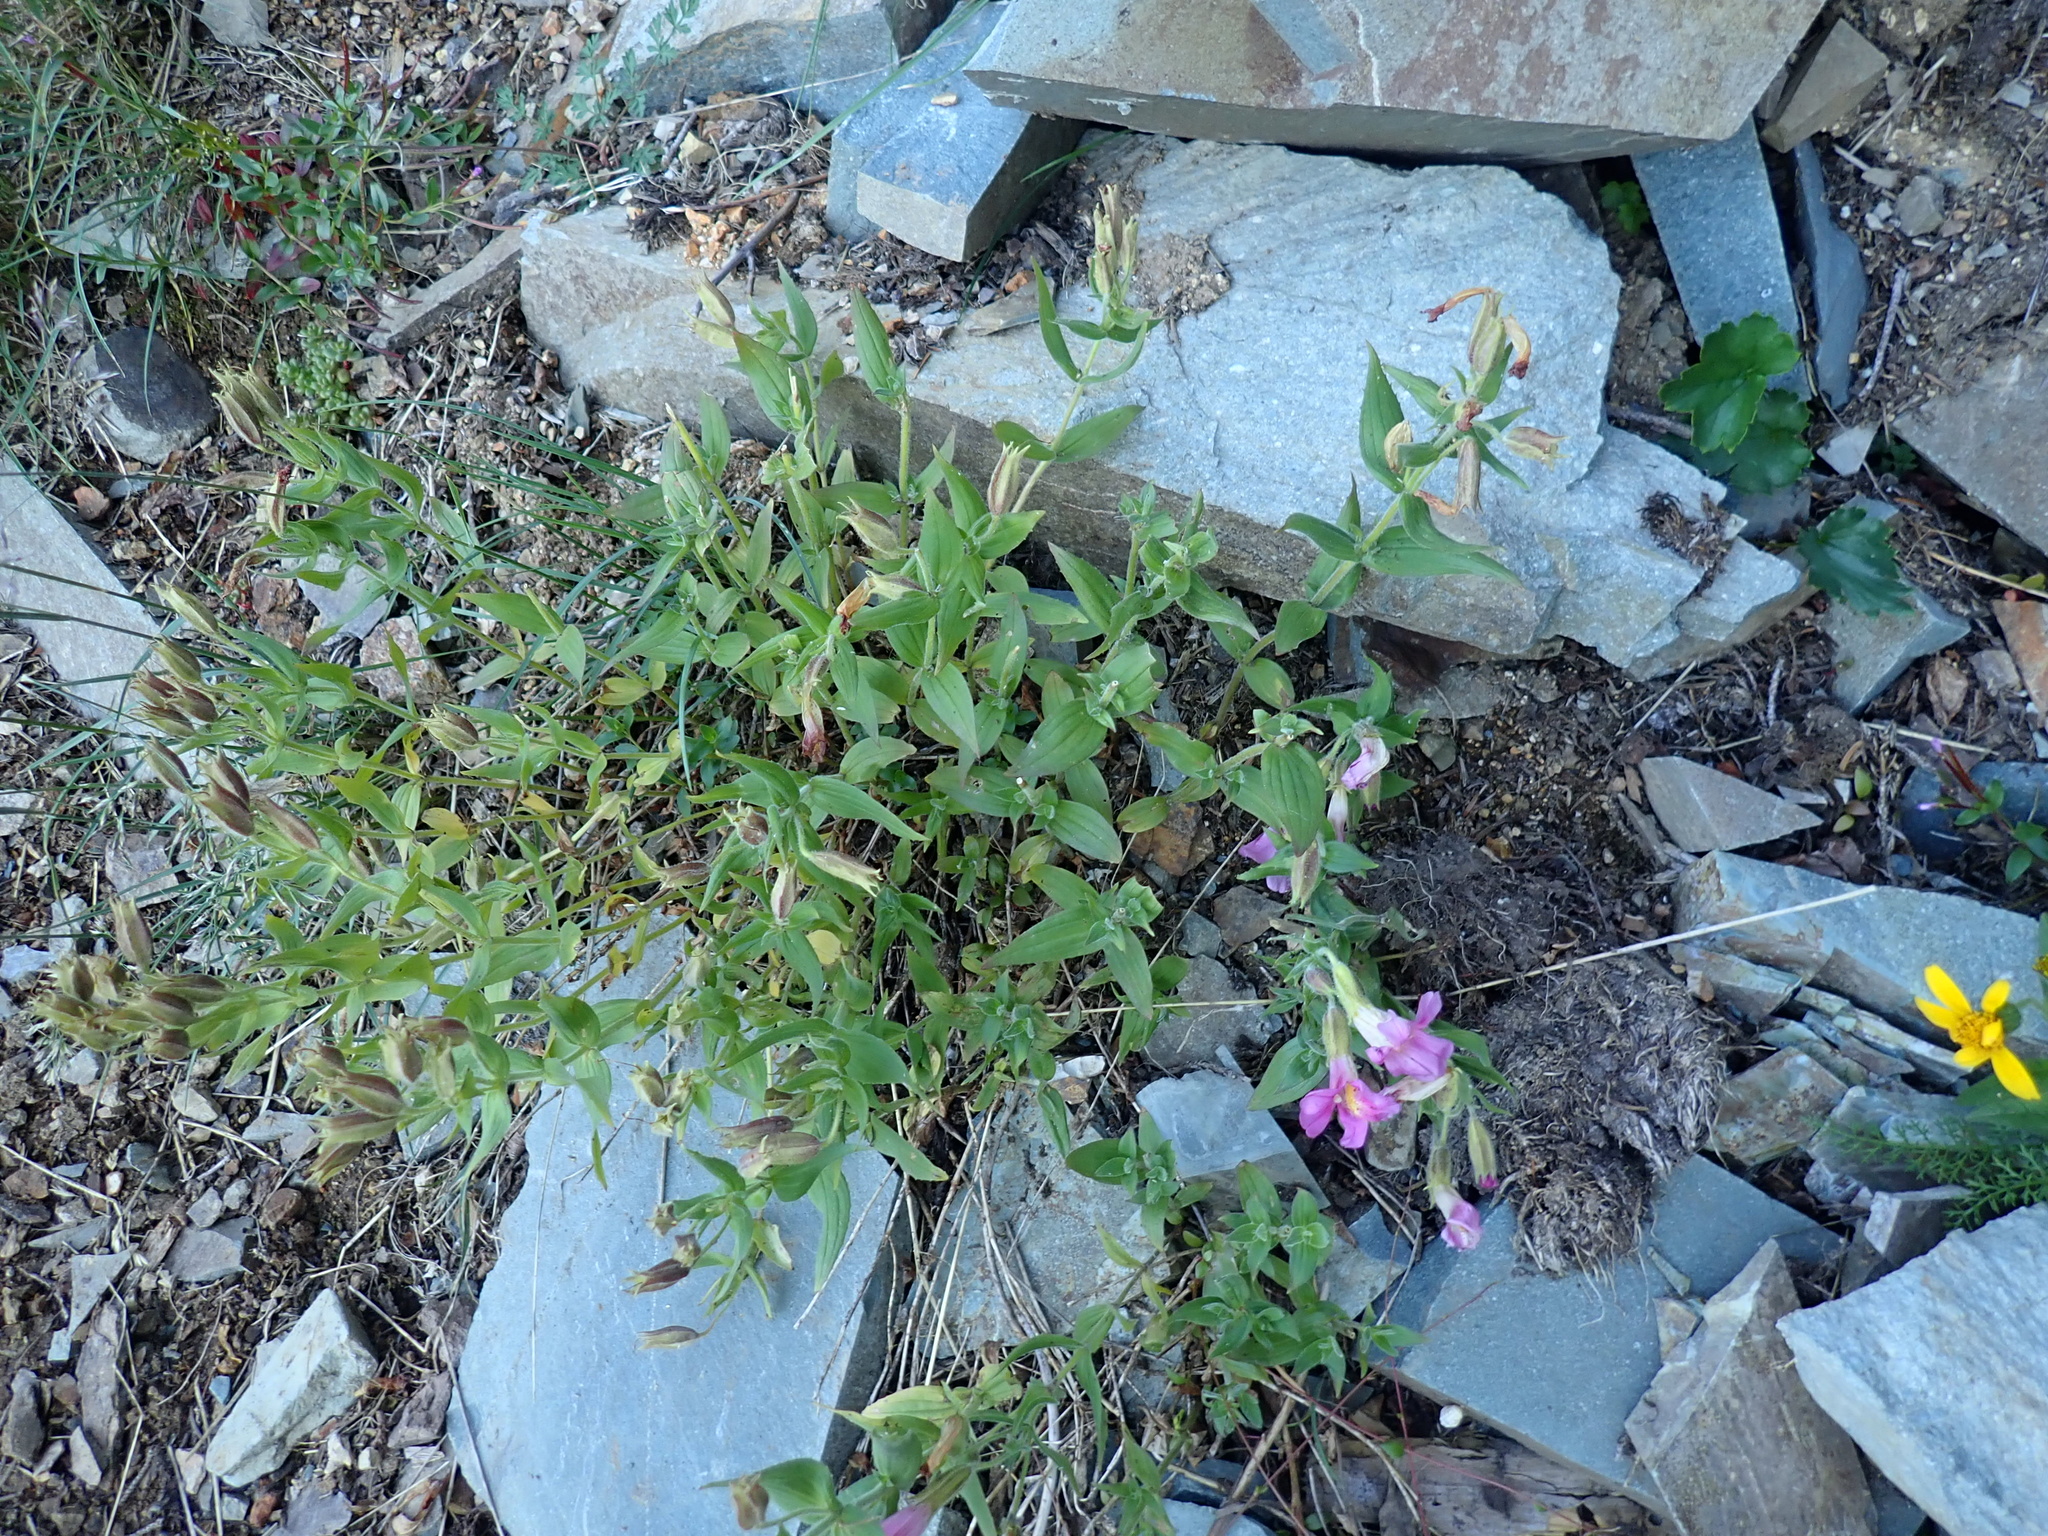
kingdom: Plantae
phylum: Tracheophyta
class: Magnoliopsida
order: Lamiales
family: Phrymaceae
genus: Erythranthe
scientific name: Erythranthe lewisii
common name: Lewis's monkey-flower
